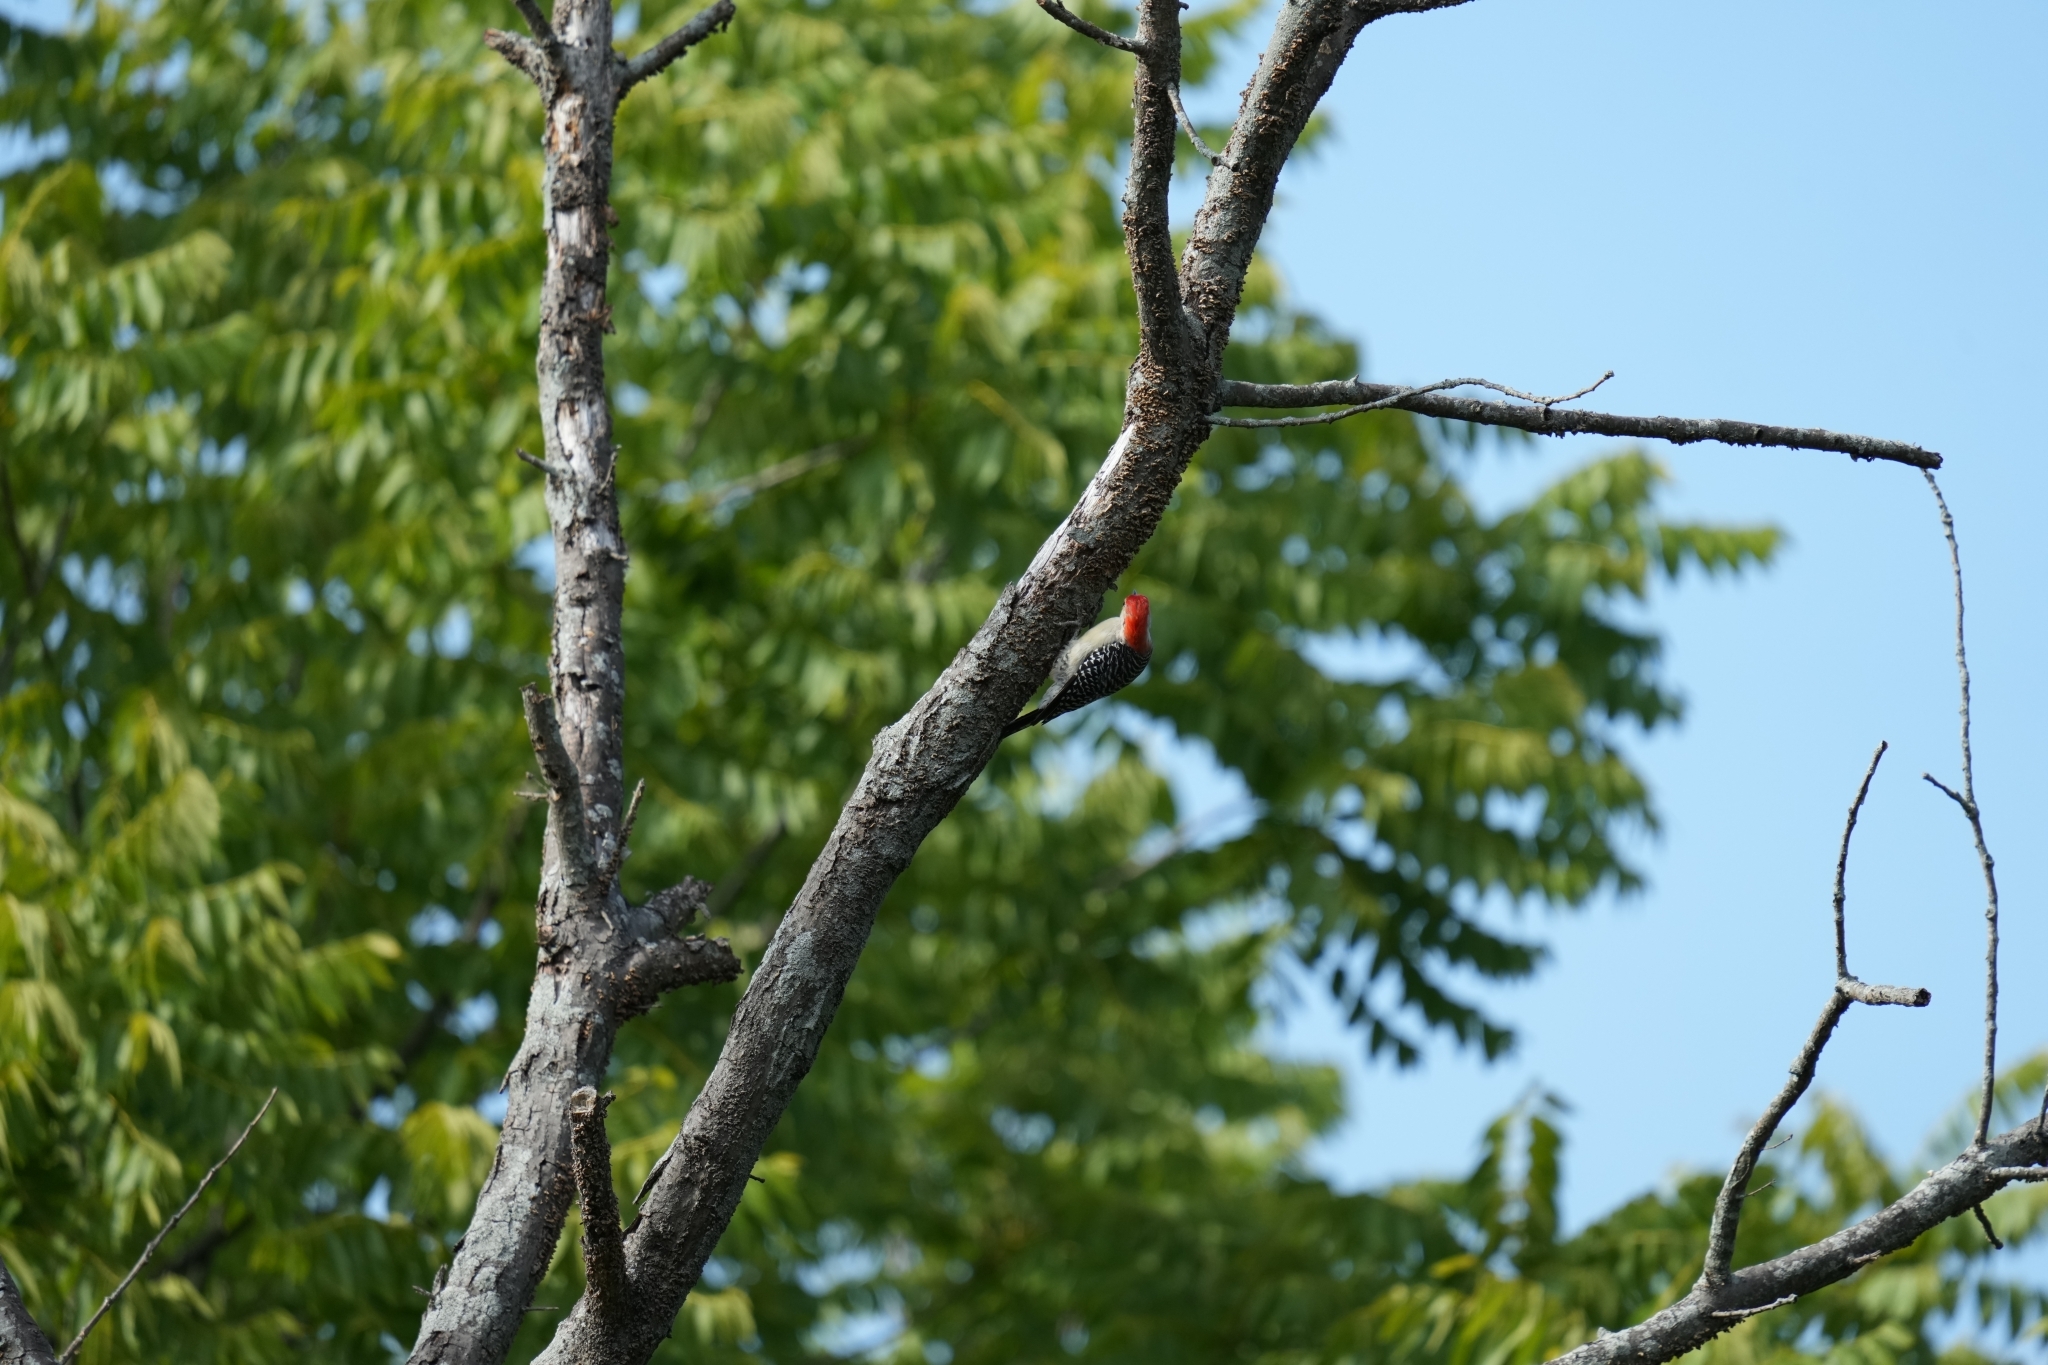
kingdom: Animalia
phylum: Chordata
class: Aves
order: Piciformes
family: Picidae
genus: Melanerpes
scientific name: Melanerpes carolinus
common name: Red-bellied woodpecker
